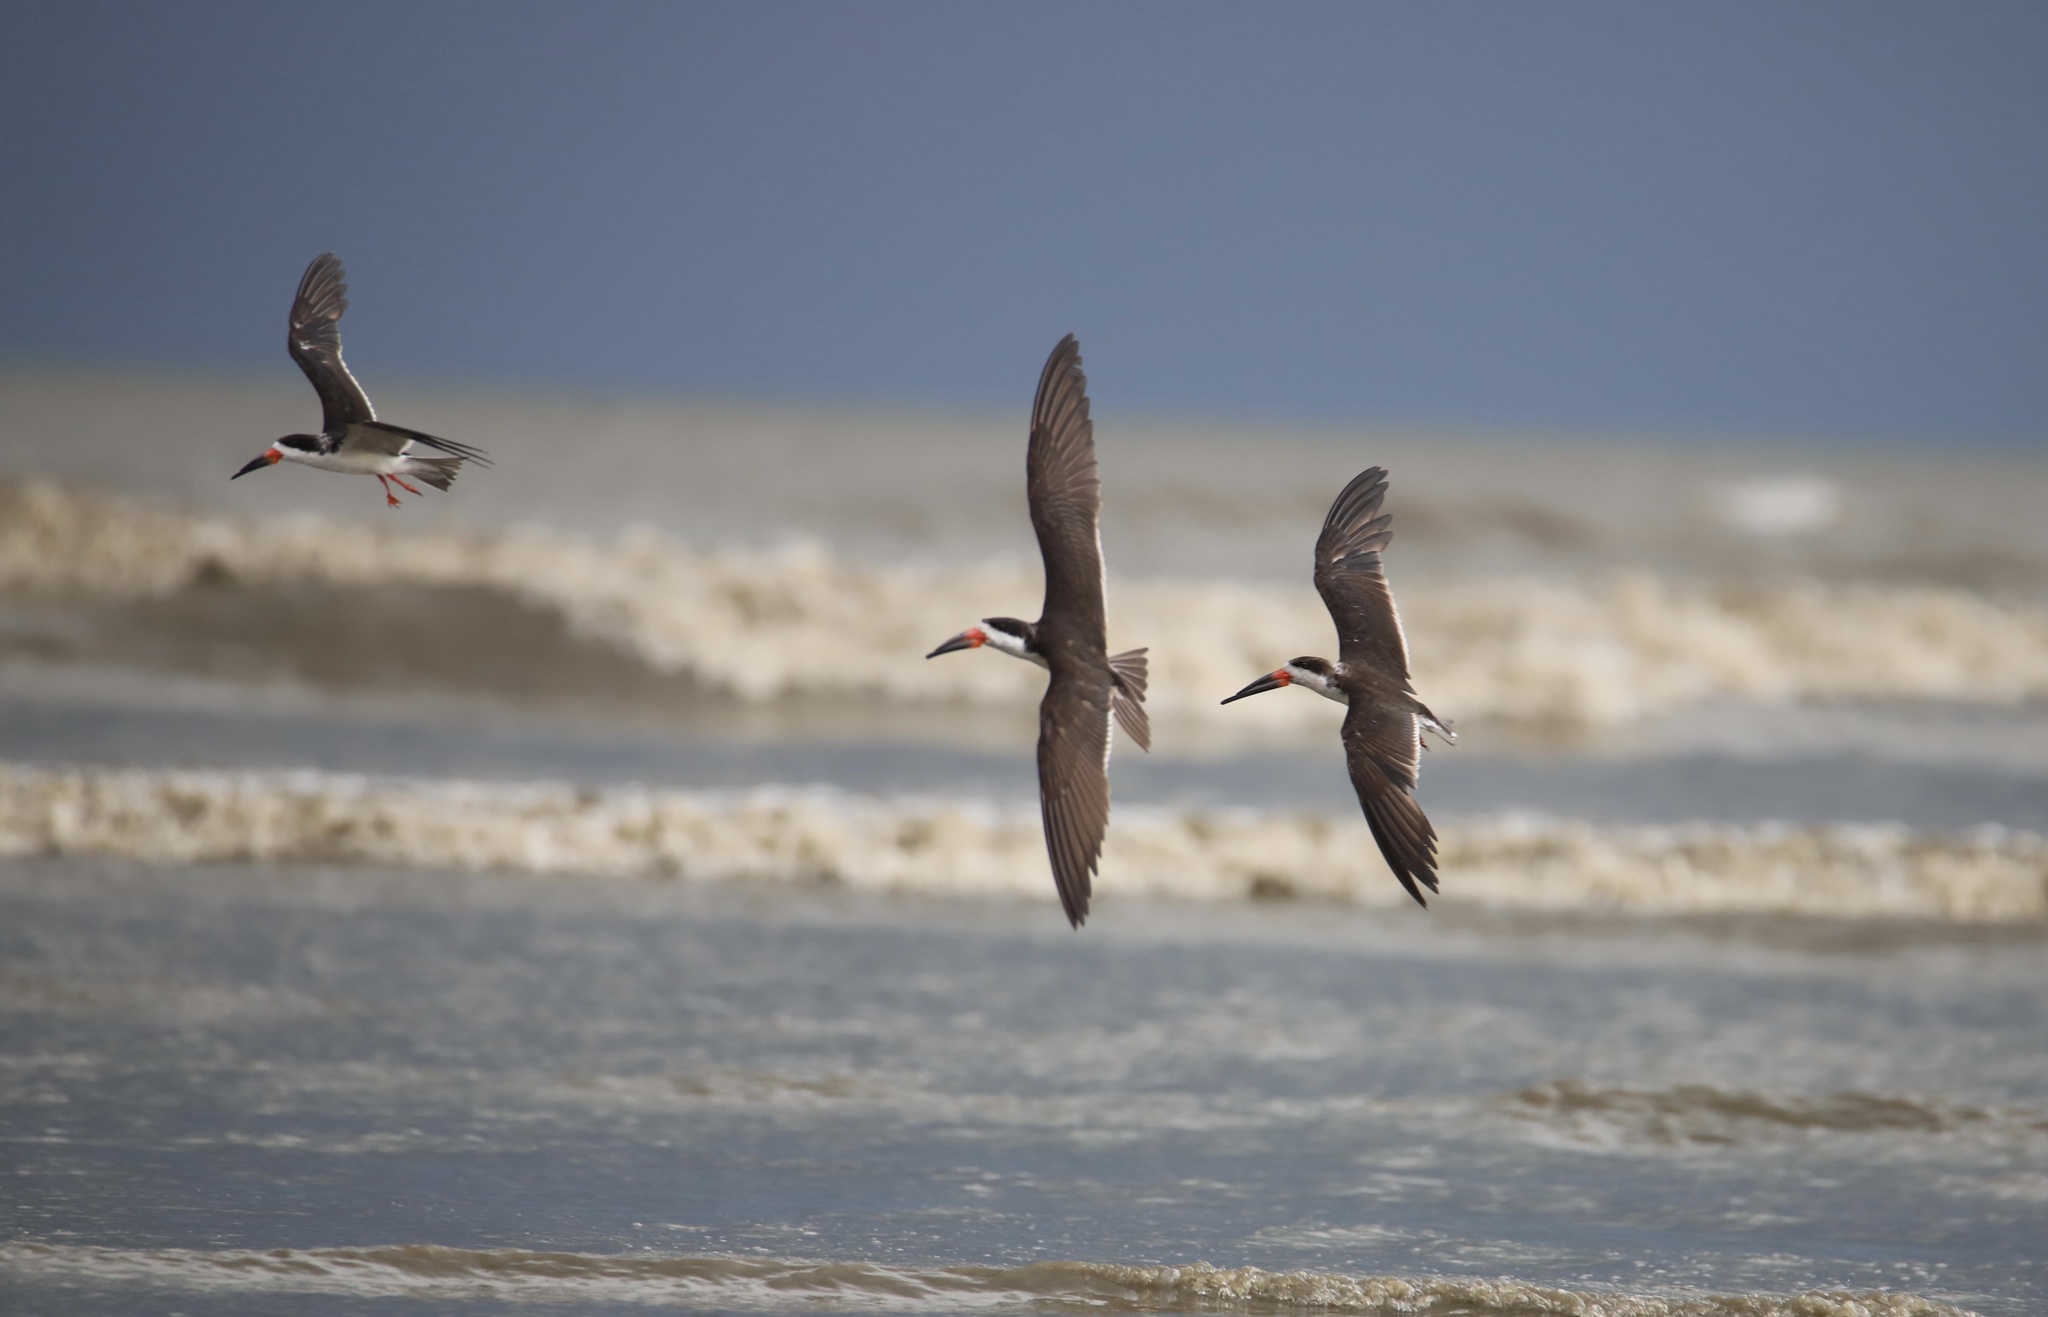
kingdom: Animalia
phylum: Chordata
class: Aves
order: Charadriiformes
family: Laridae
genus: Rynchops
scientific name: Rynchops niger
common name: Black skimmer
